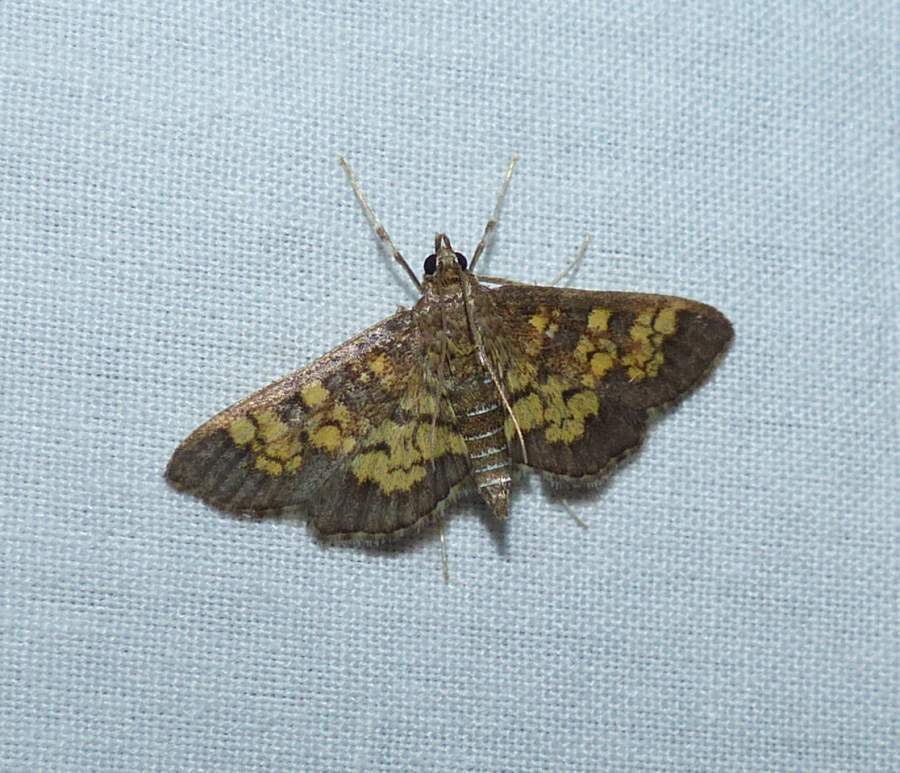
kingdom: Animalia
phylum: Arthropoda
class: Insecta
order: Lepidoptera
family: Crambidae
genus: Epipagis
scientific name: Epipagis adipaloides
